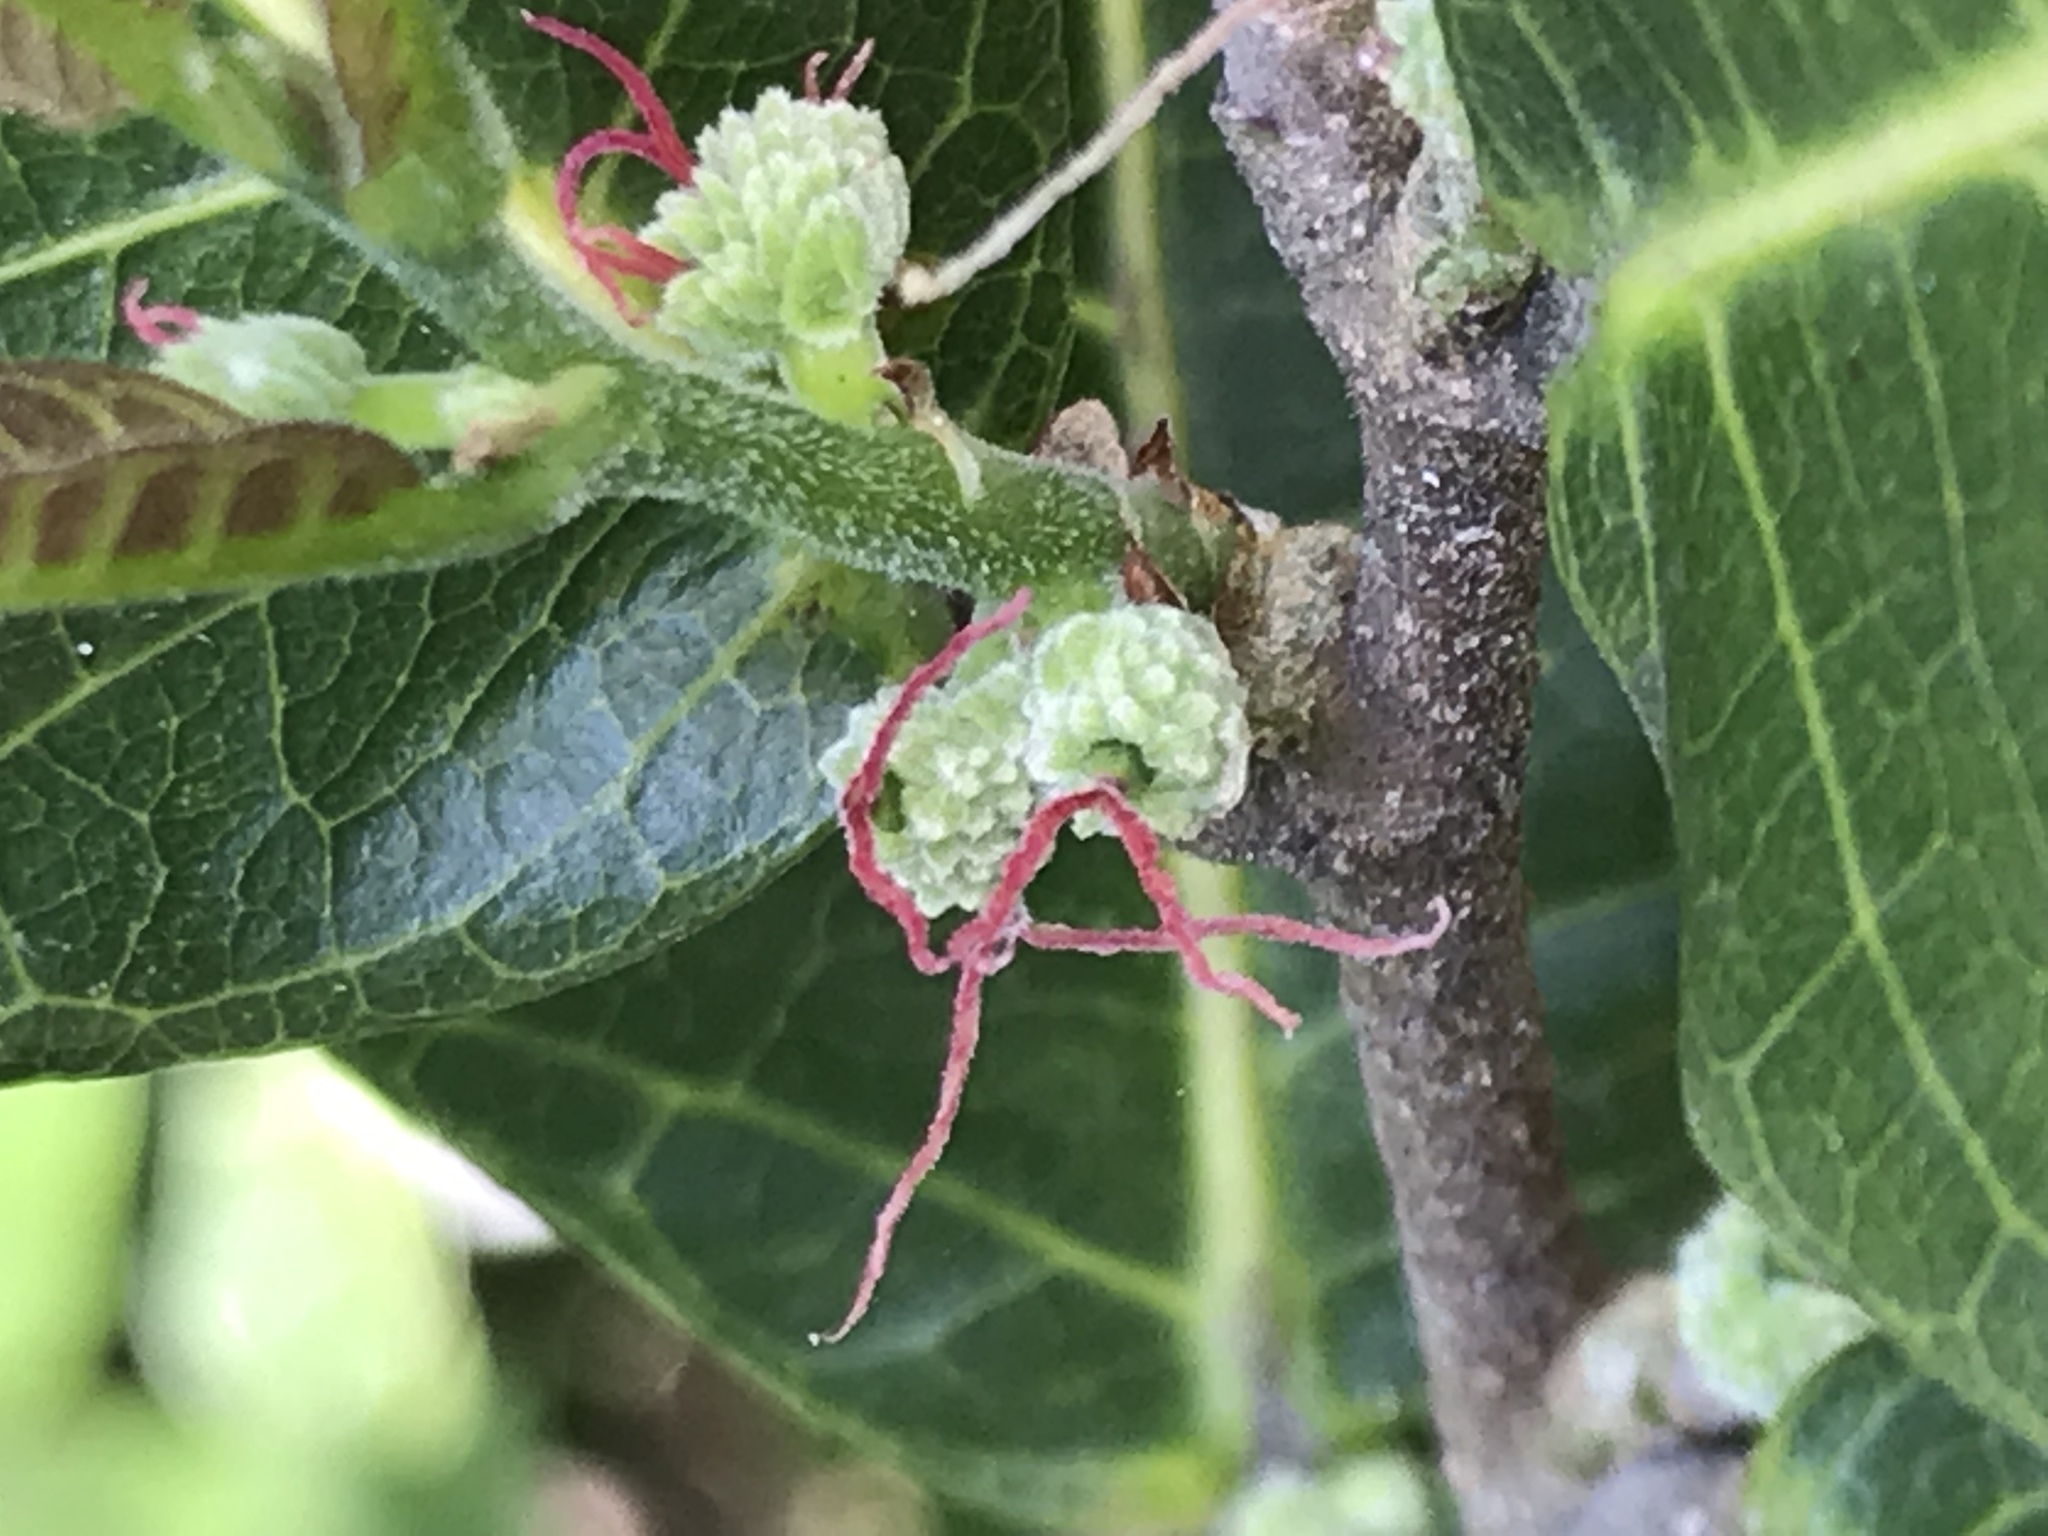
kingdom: Plantae
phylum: Tracheophyta
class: Magnoliopsida
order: Rosales
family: Moraceae
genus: Malaisia
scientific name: Malaisia scandens
